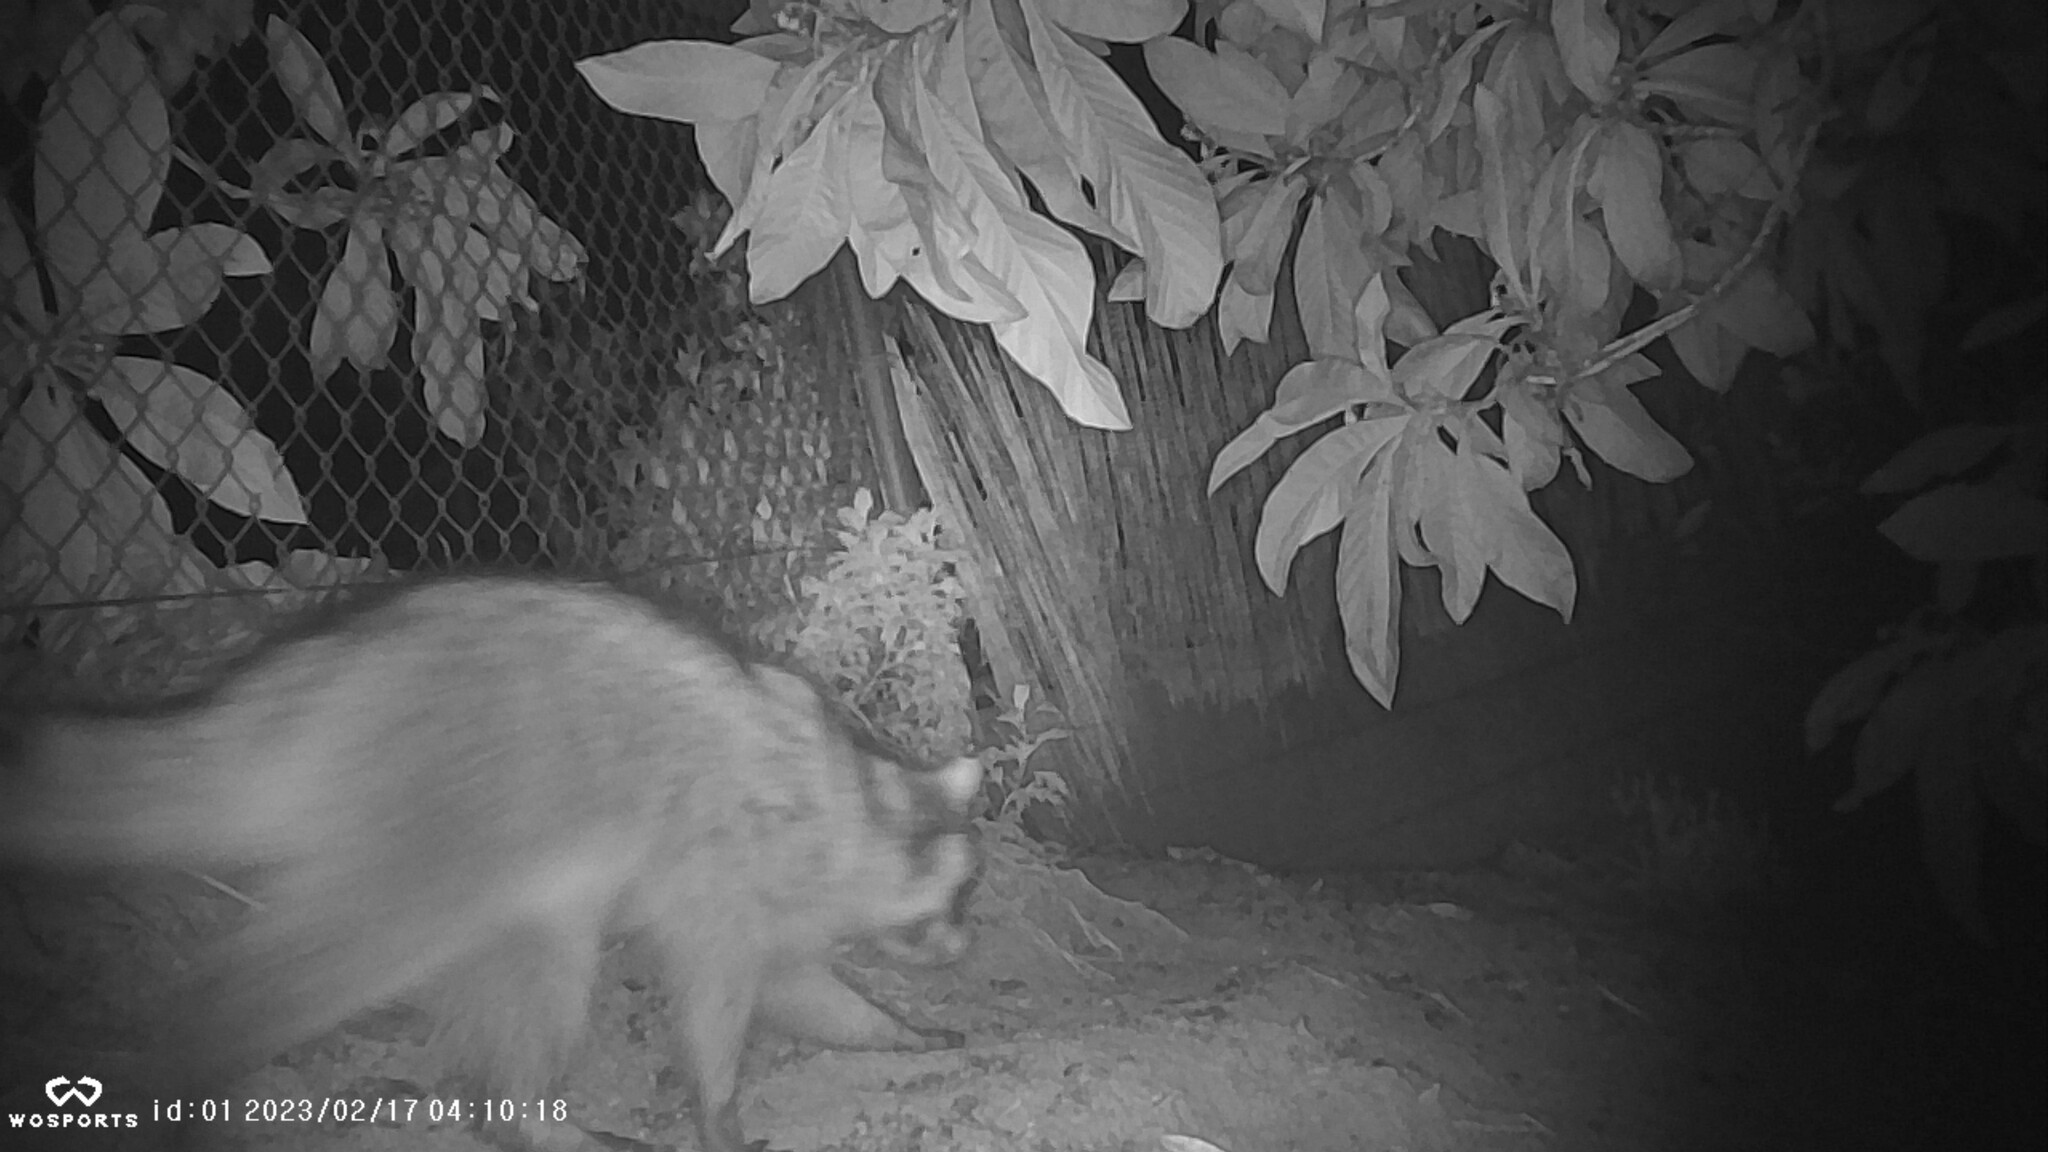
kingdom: Animalia
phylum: Chordata
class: Mammalia
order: Carnivora
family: Procyonidae
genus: Procyon
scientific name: Procyon lotor
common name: Raccoon
